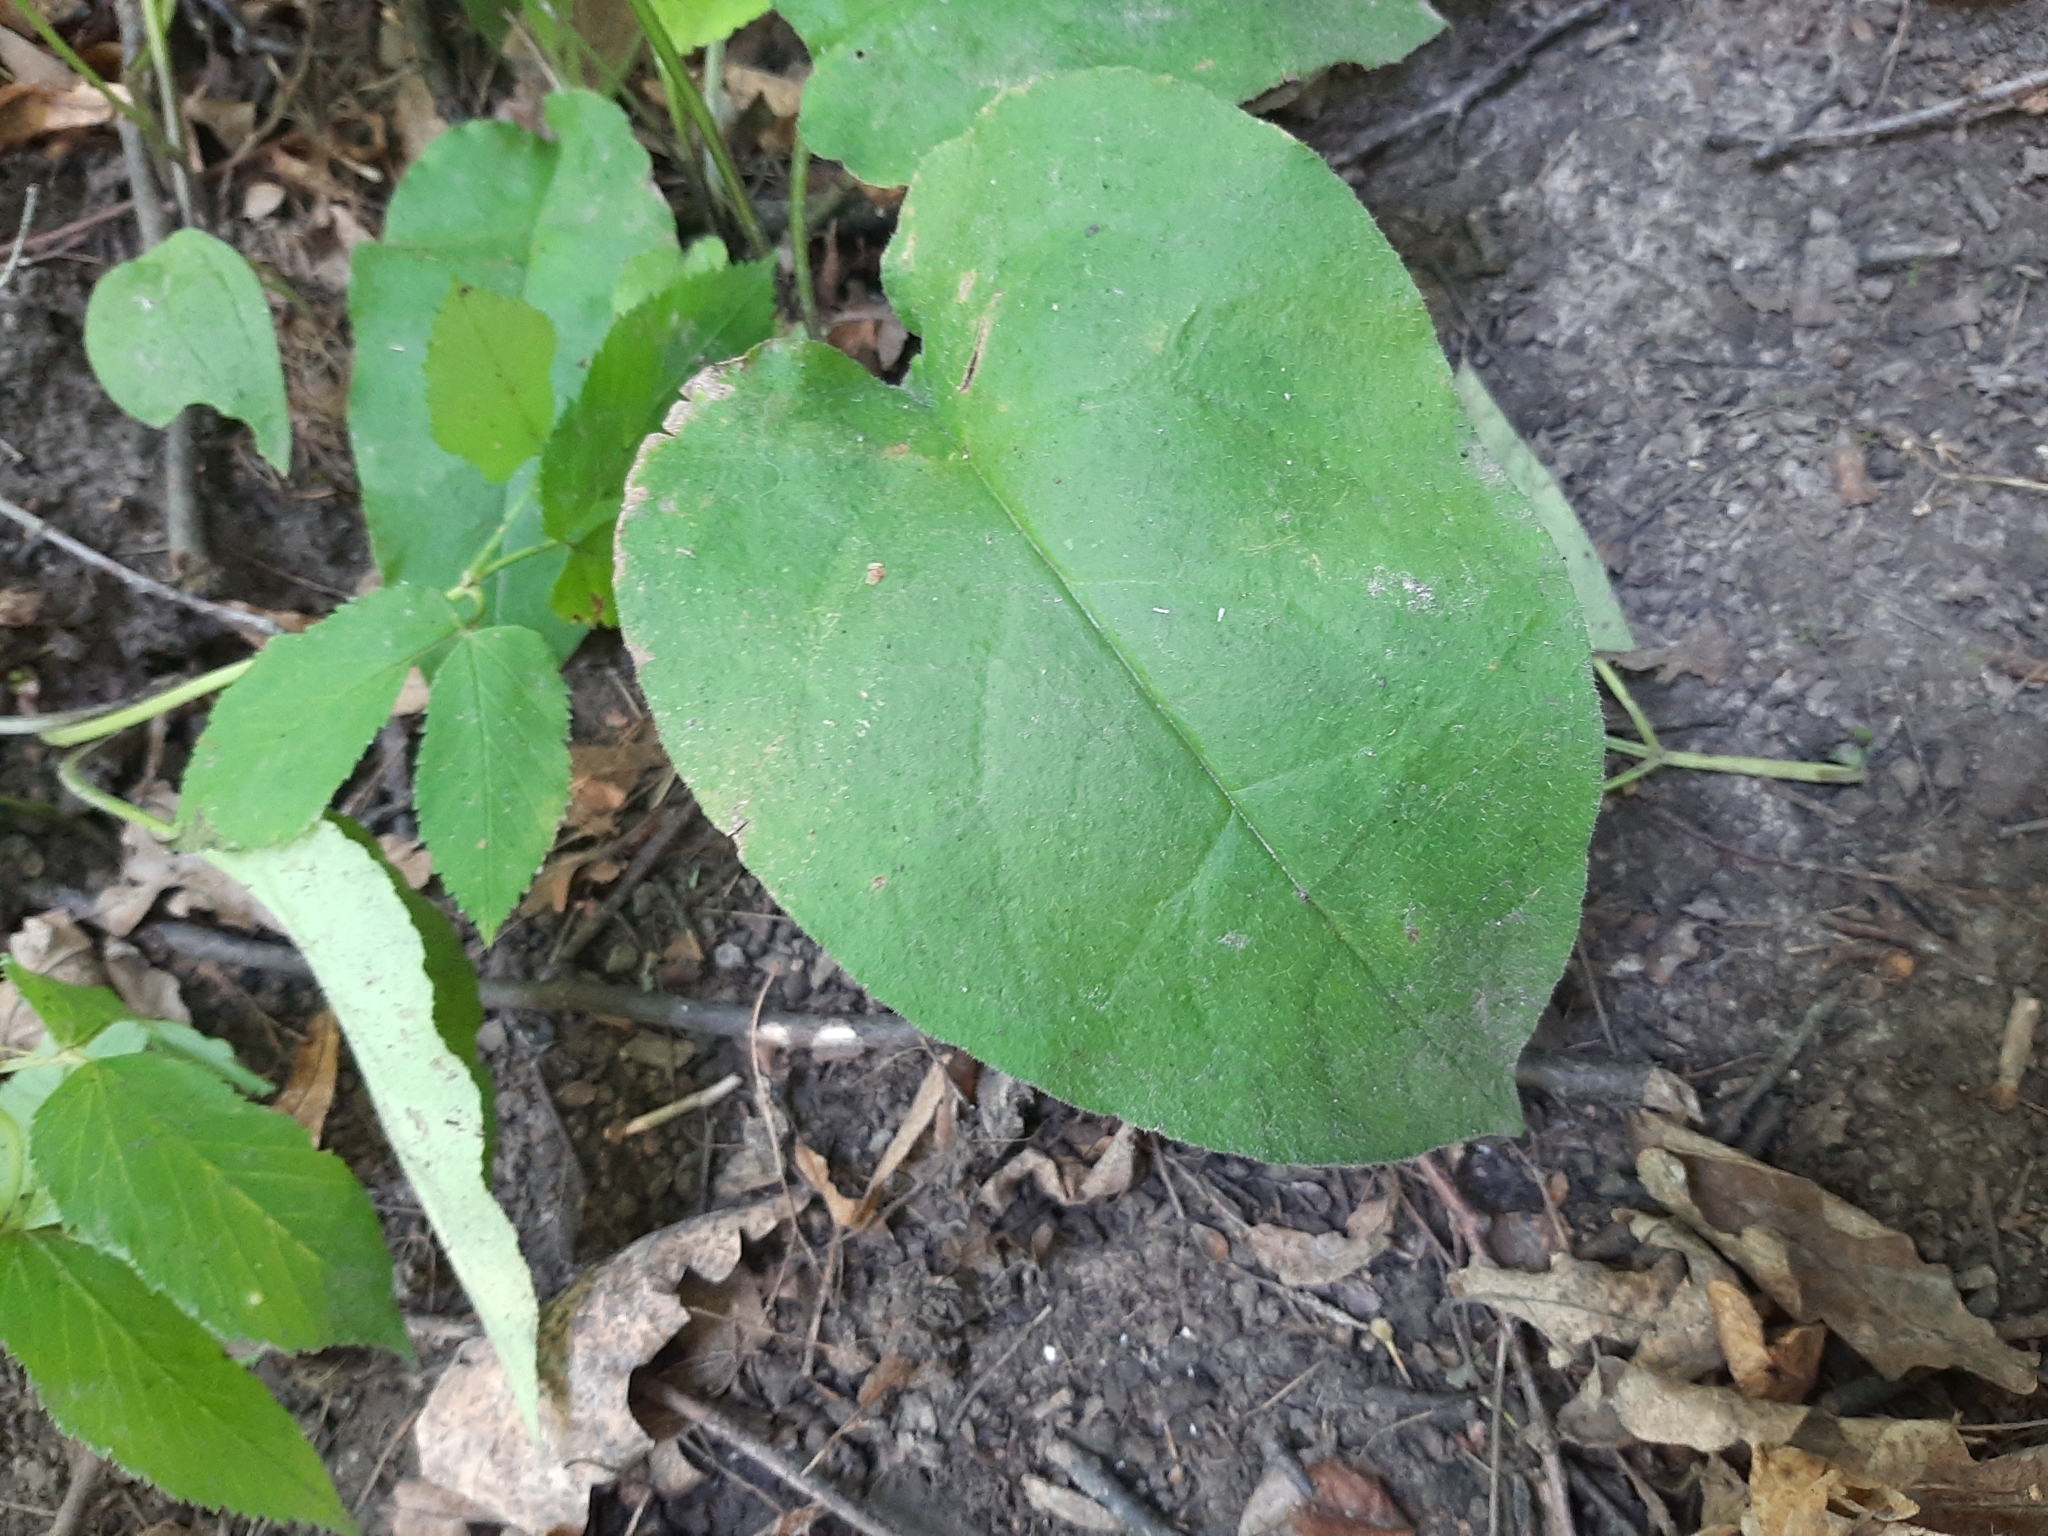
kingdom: Plantae
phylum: Tracheophyta
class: Magnoliopsida
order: Boraginales
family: Boraginaceae
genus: Pulmonaria
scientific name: Pulmonaria obscura
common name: Suffolk lungwort
